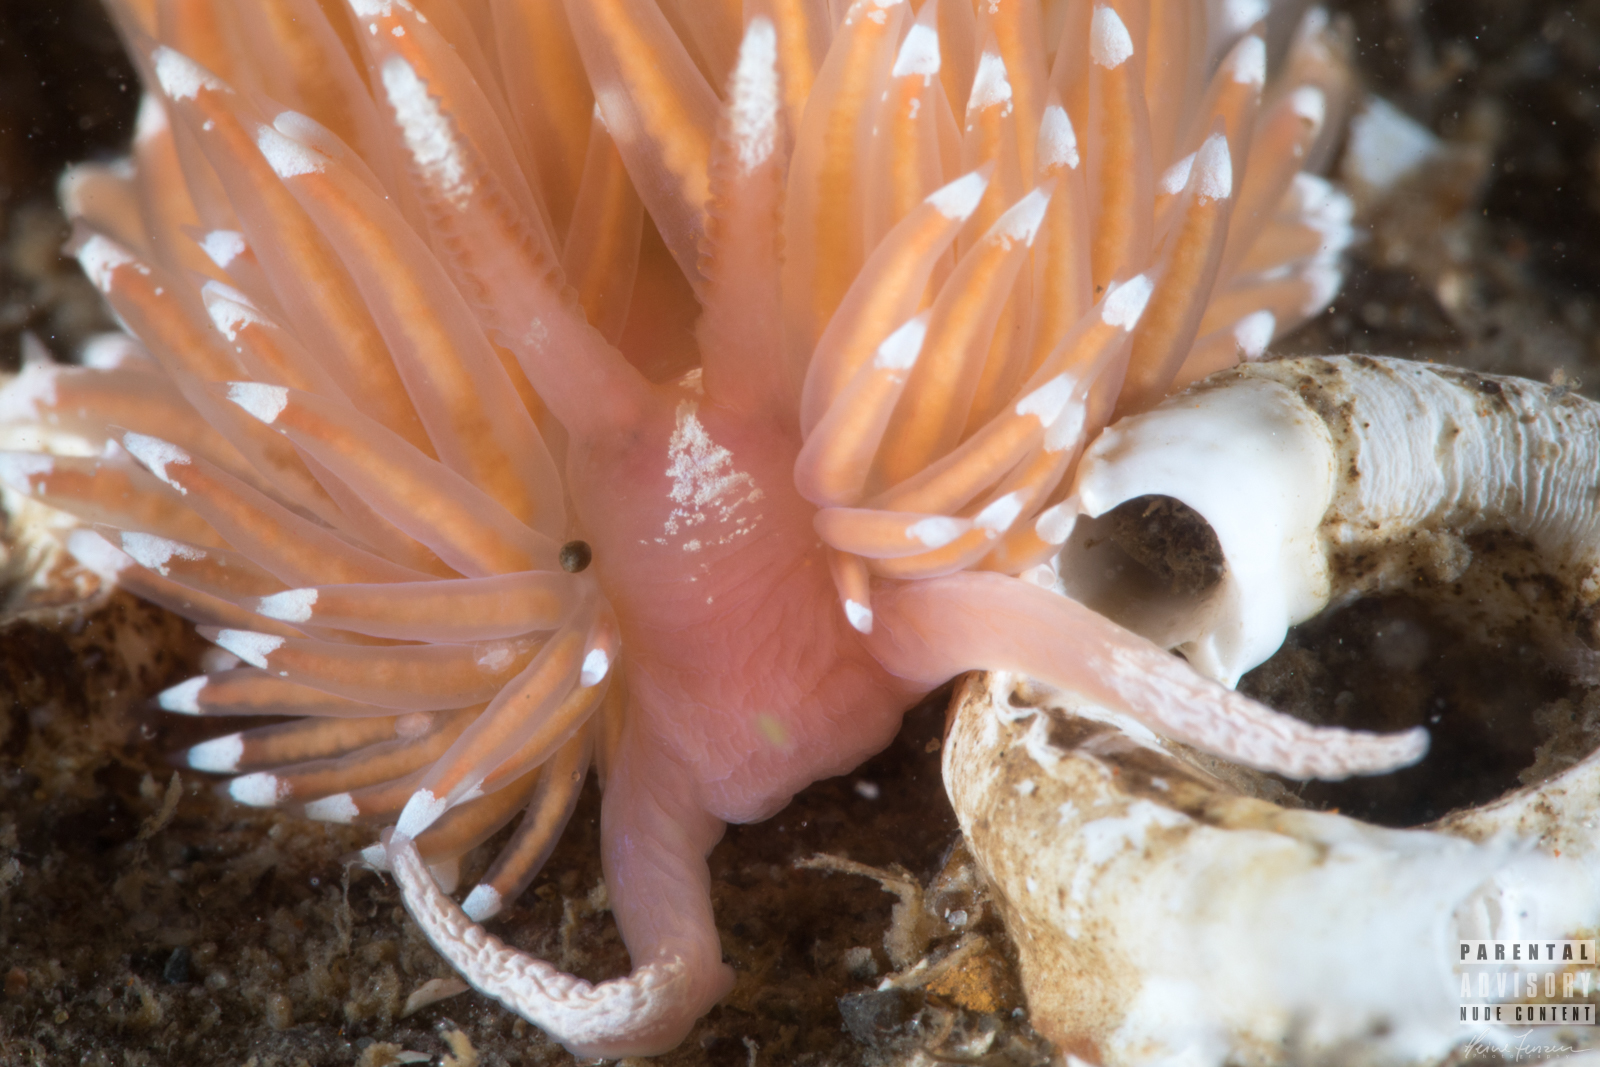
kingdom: Animalia
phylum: Mollusca
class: Gastropoda
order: Nudibranchia
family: Facelinidae
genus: Facelina
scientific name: Facelina bostoniensis
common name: Boston facelina
